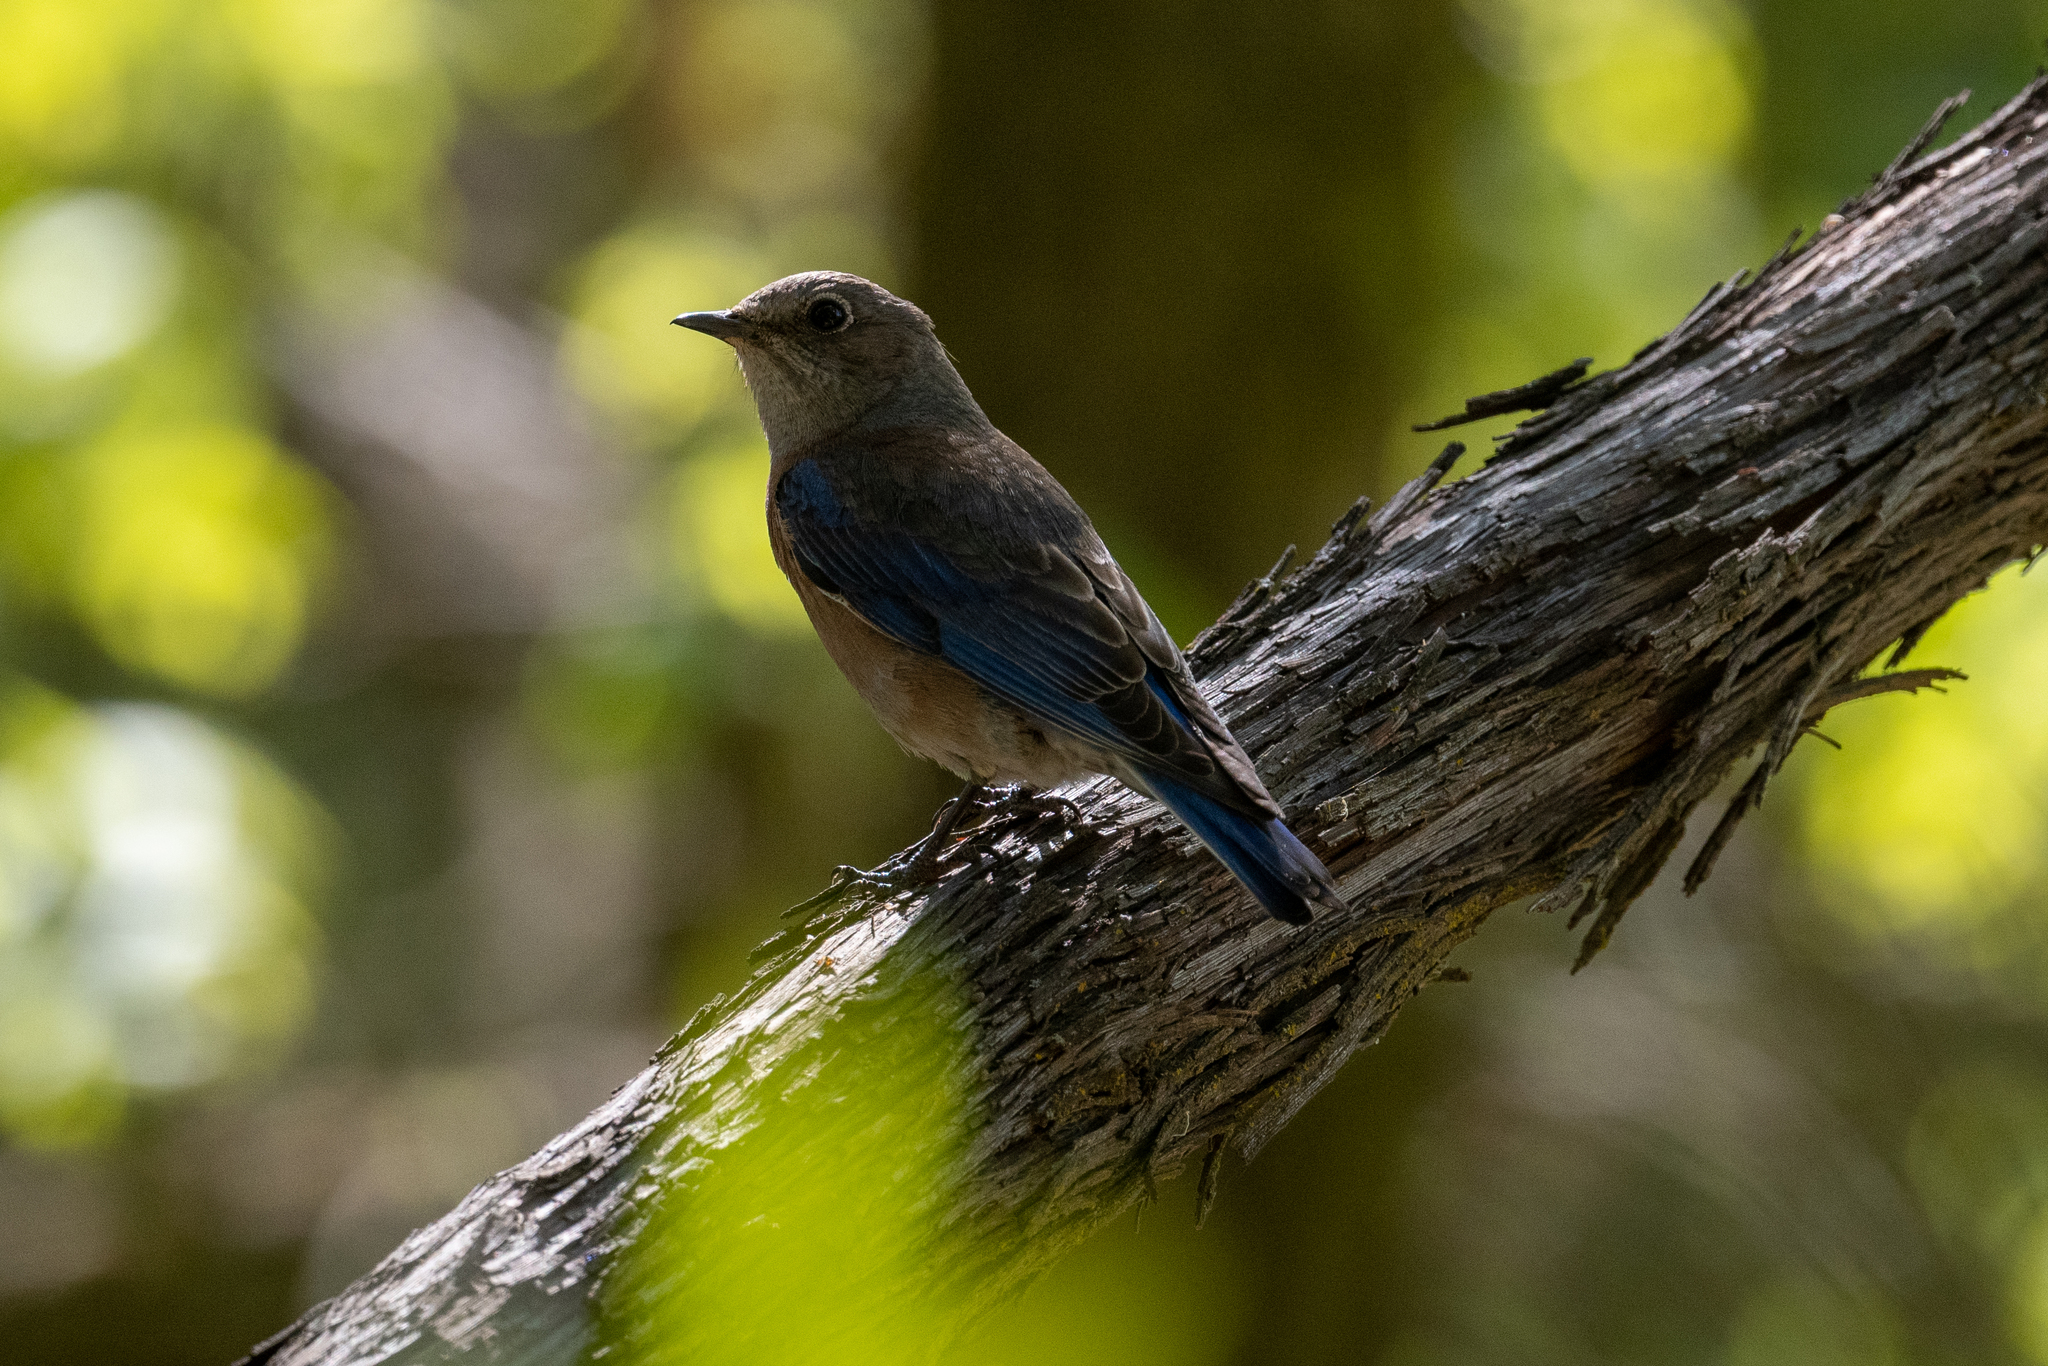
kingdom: Animalia
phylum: Chordata
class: Aves
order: Passeriformes
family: Turdidae
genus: Sialia
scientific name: Sialia mexicana
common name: Western bluebird
